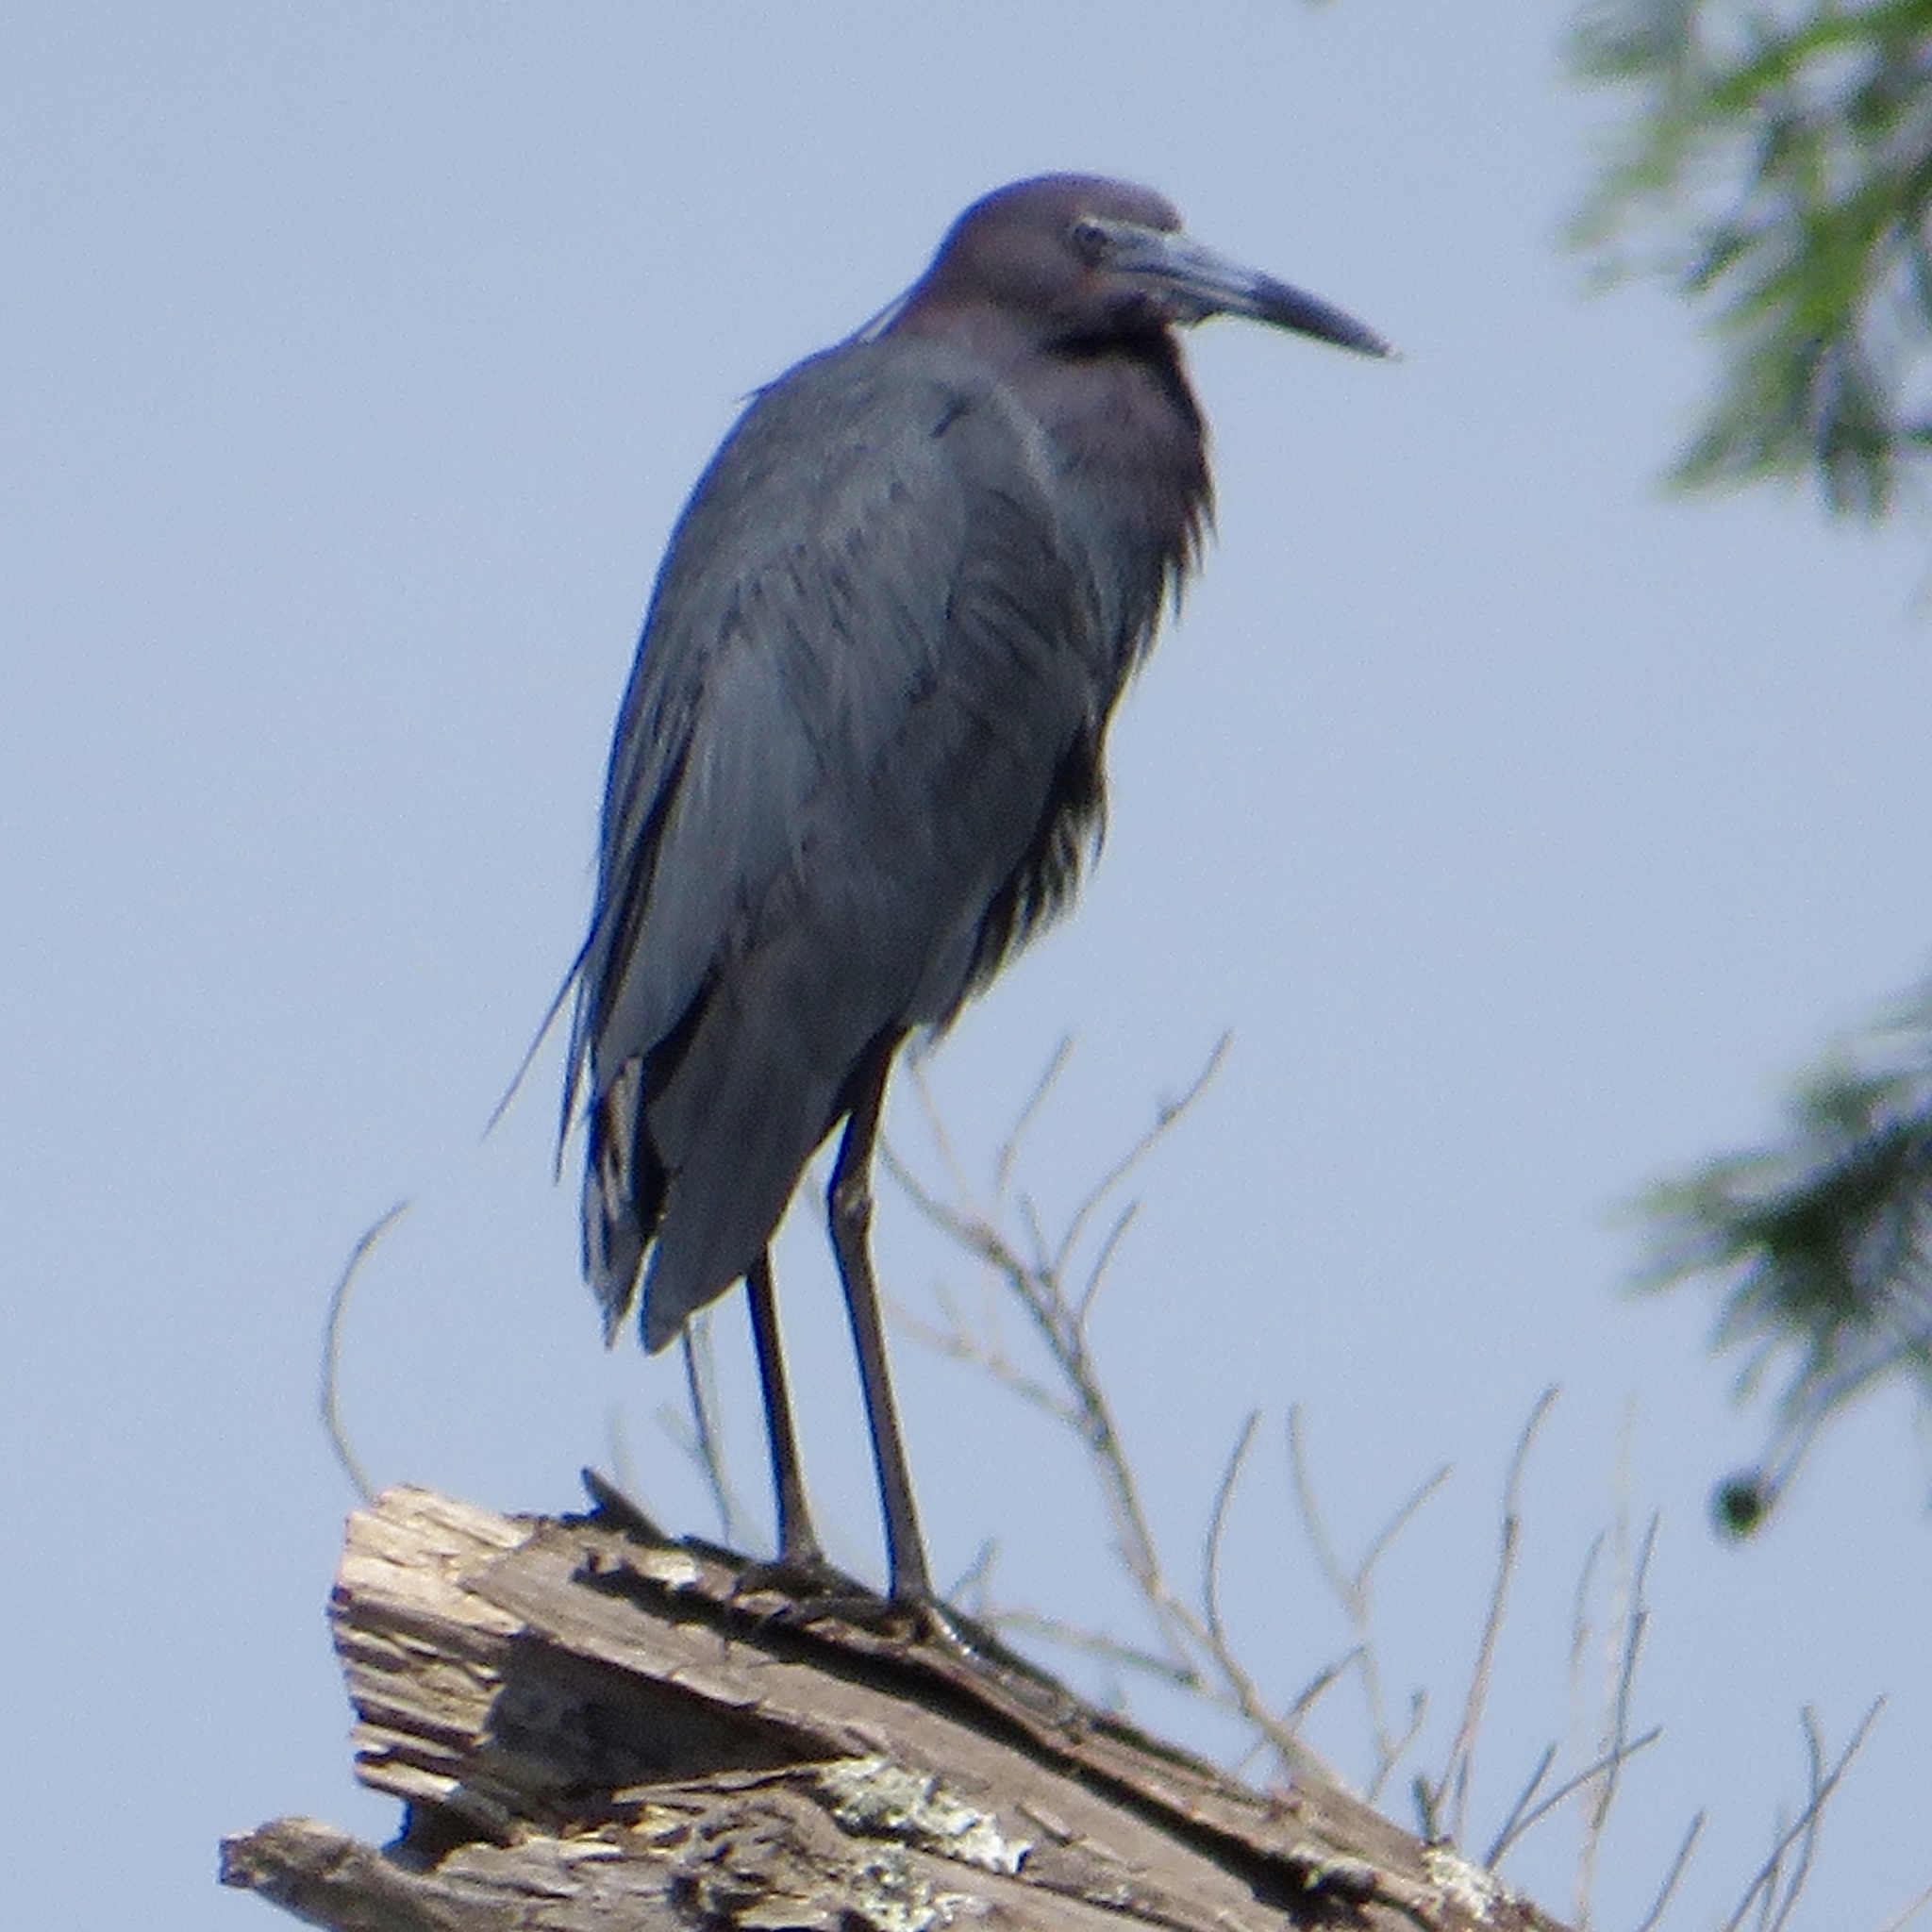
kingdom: Animalia
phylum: Chordata
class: Aves
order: Pelecaniformes
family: Ardeidae
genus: Egretta
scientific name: Egretta caerulea
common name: Little blue heron
